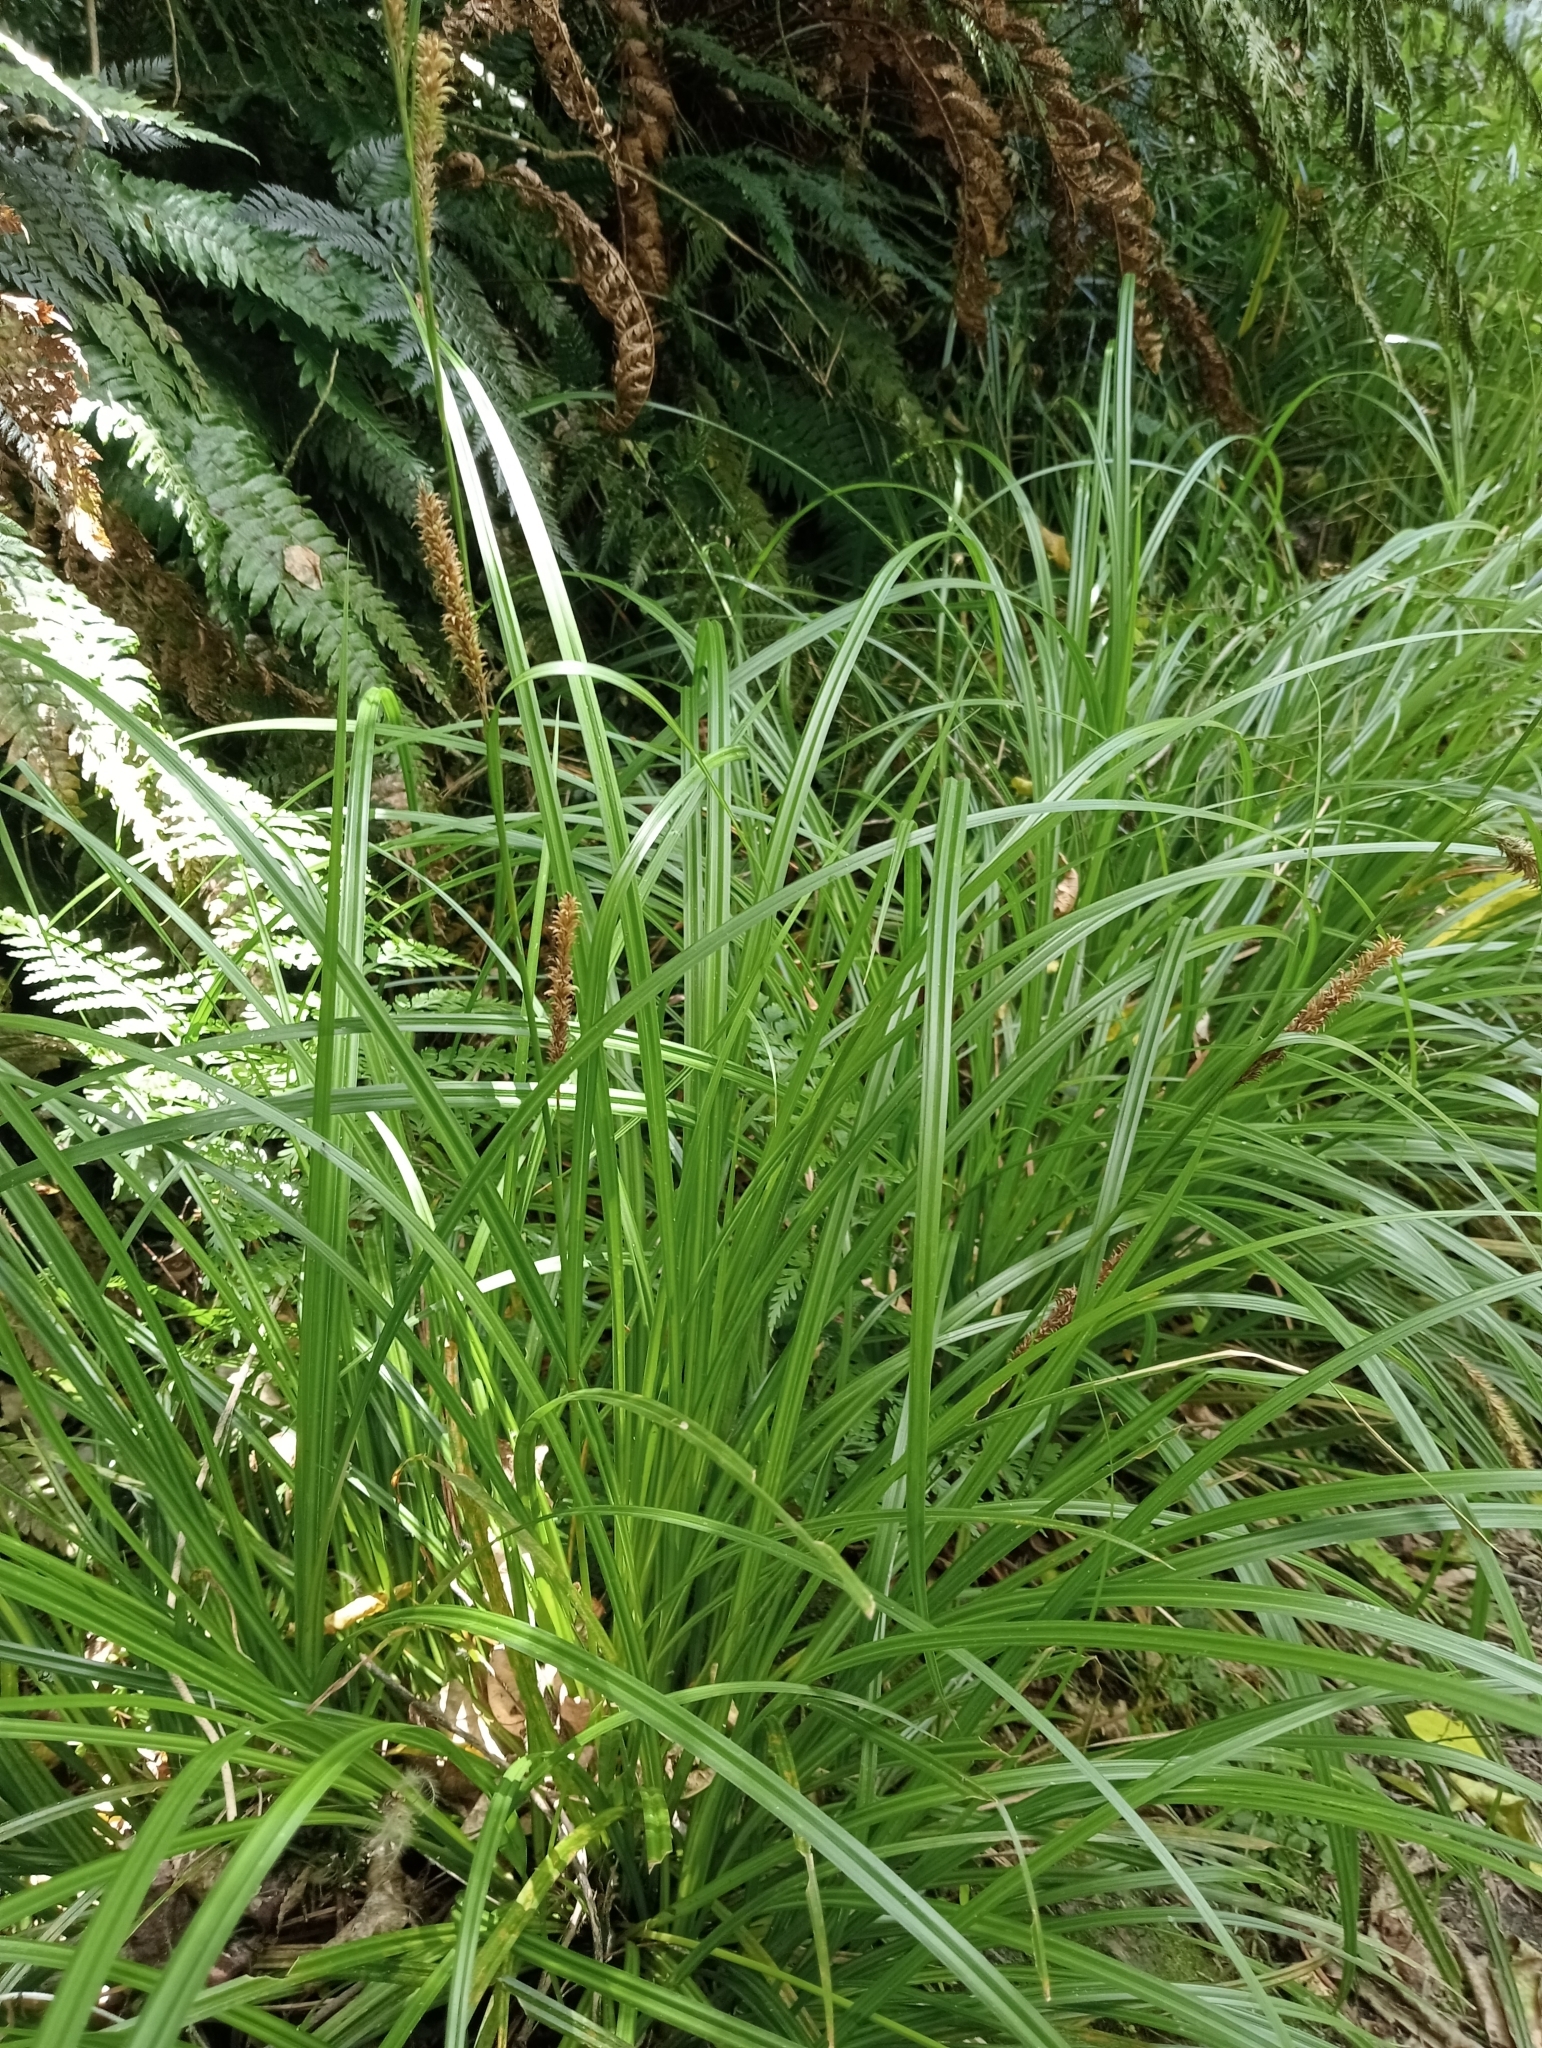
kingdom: Plantae
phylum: Tracheophyta
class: Liliopsida
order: Poales
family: Cyperaceae
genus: Carex
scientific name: Carex forsteri
